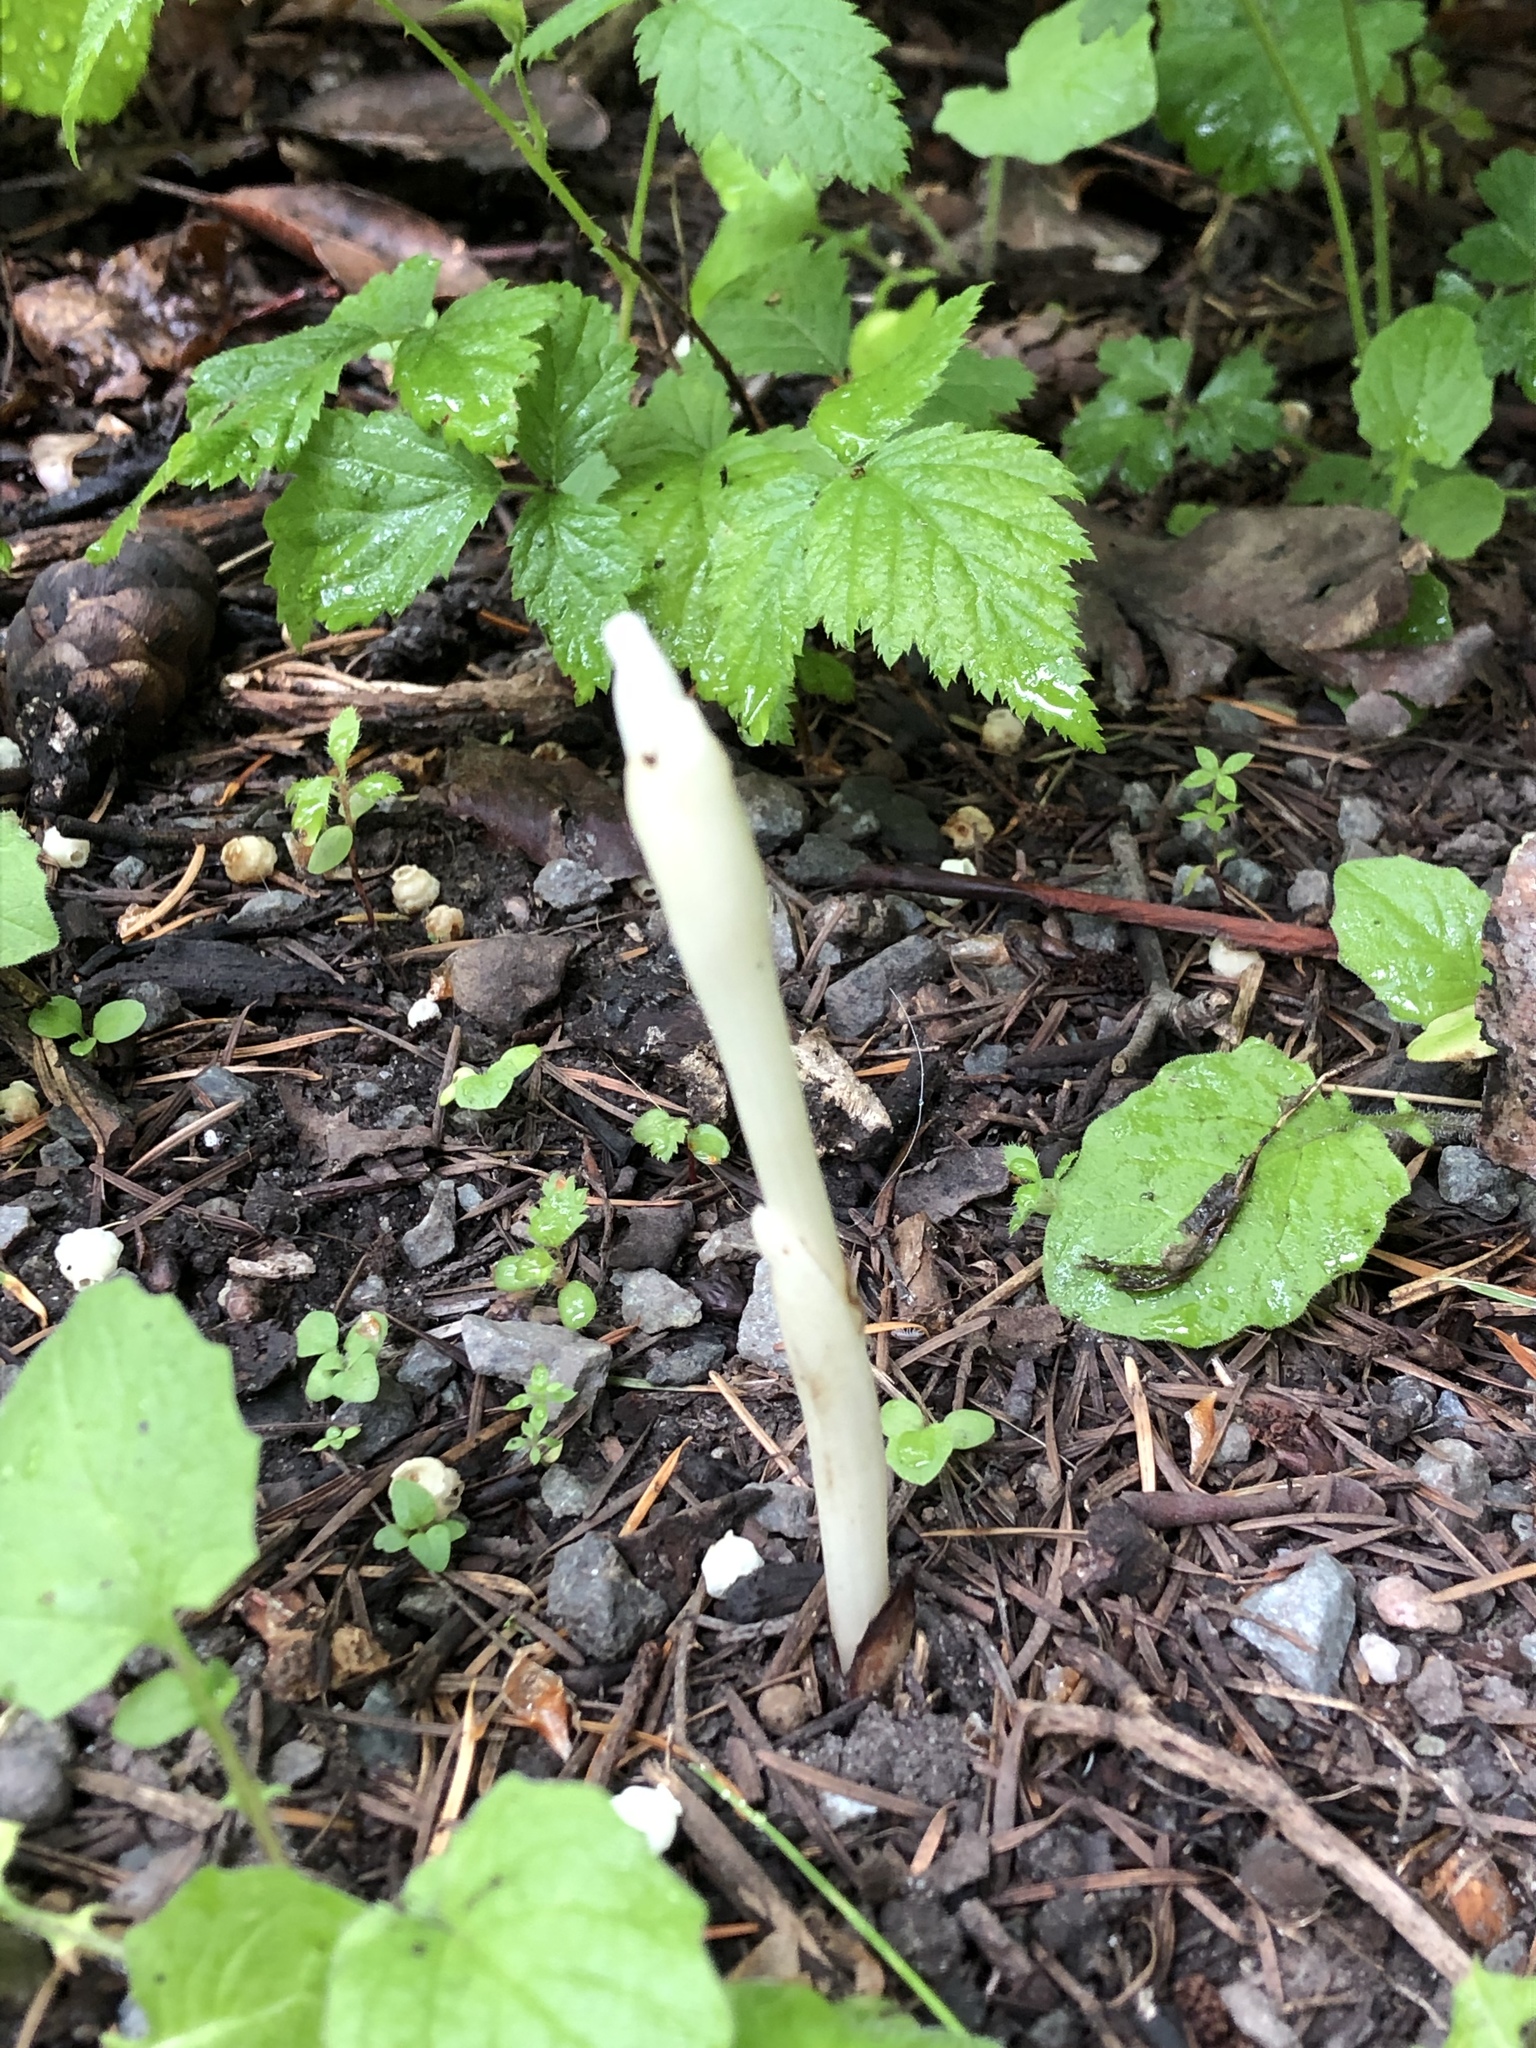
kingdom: Plantae
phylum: Tracheophyta
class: Liliopsida
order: Asparagales
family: Orchidaceae
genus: Cephalanthera
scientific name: Cephalanthera austiniae
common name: Phantom orchid
